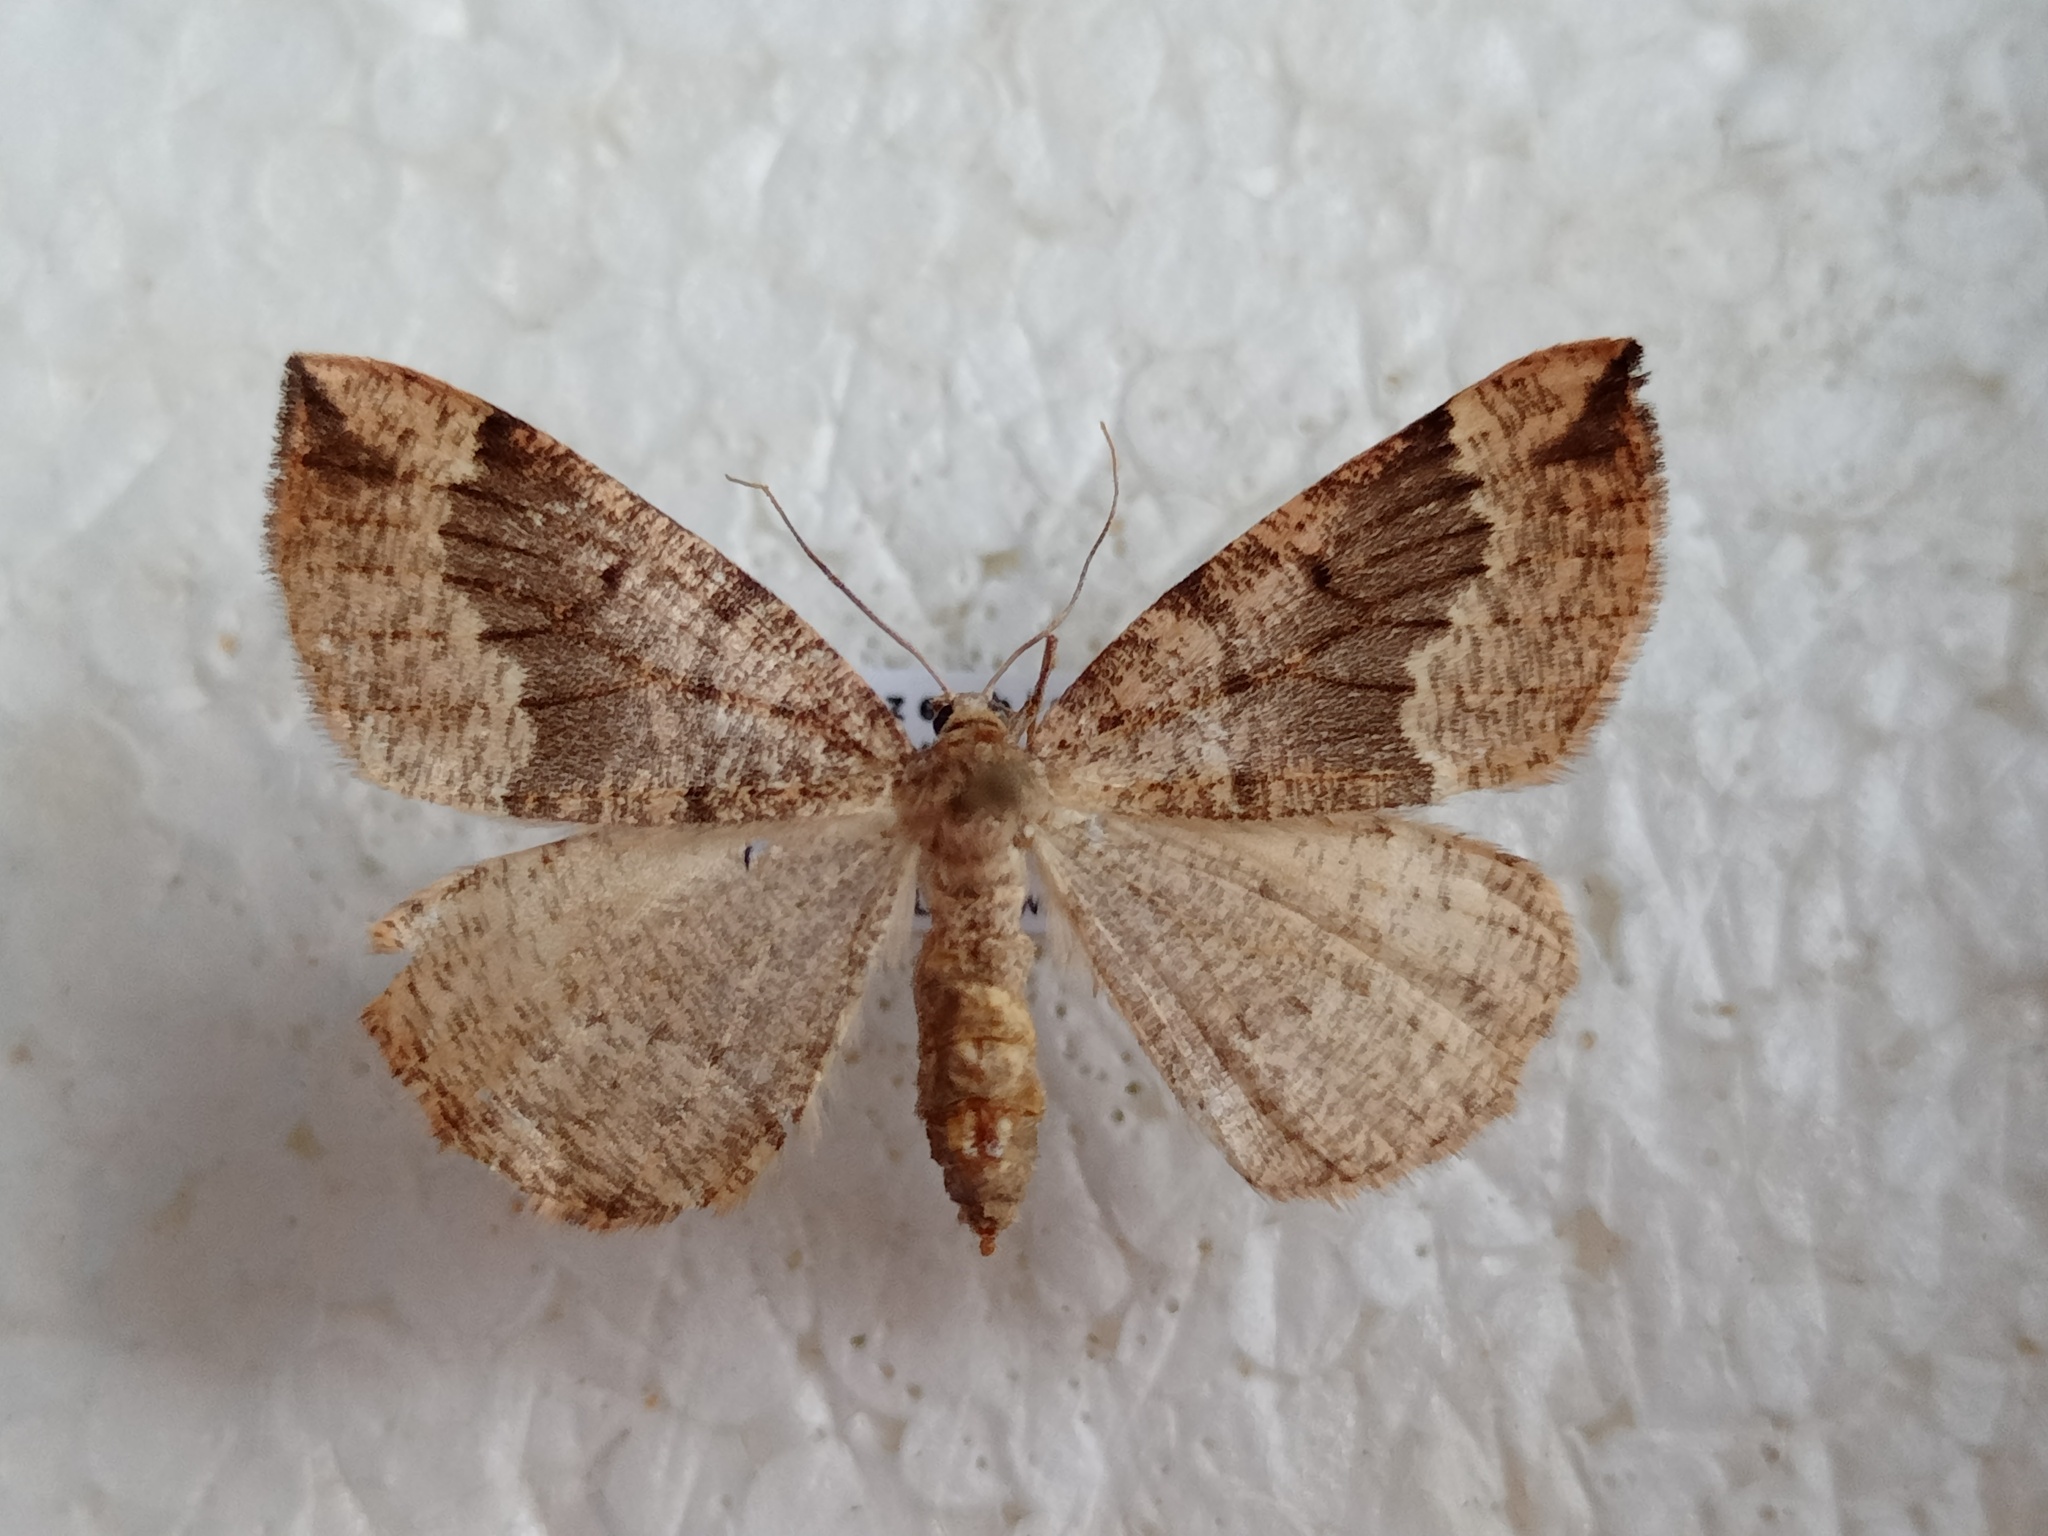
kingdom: Animalia
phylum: Arthropoda
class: Insecta
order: Lepidoptera
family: Geometridae
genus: Pungeleria
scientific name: Pungeleria capreolaria
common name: Banded pine carpet
